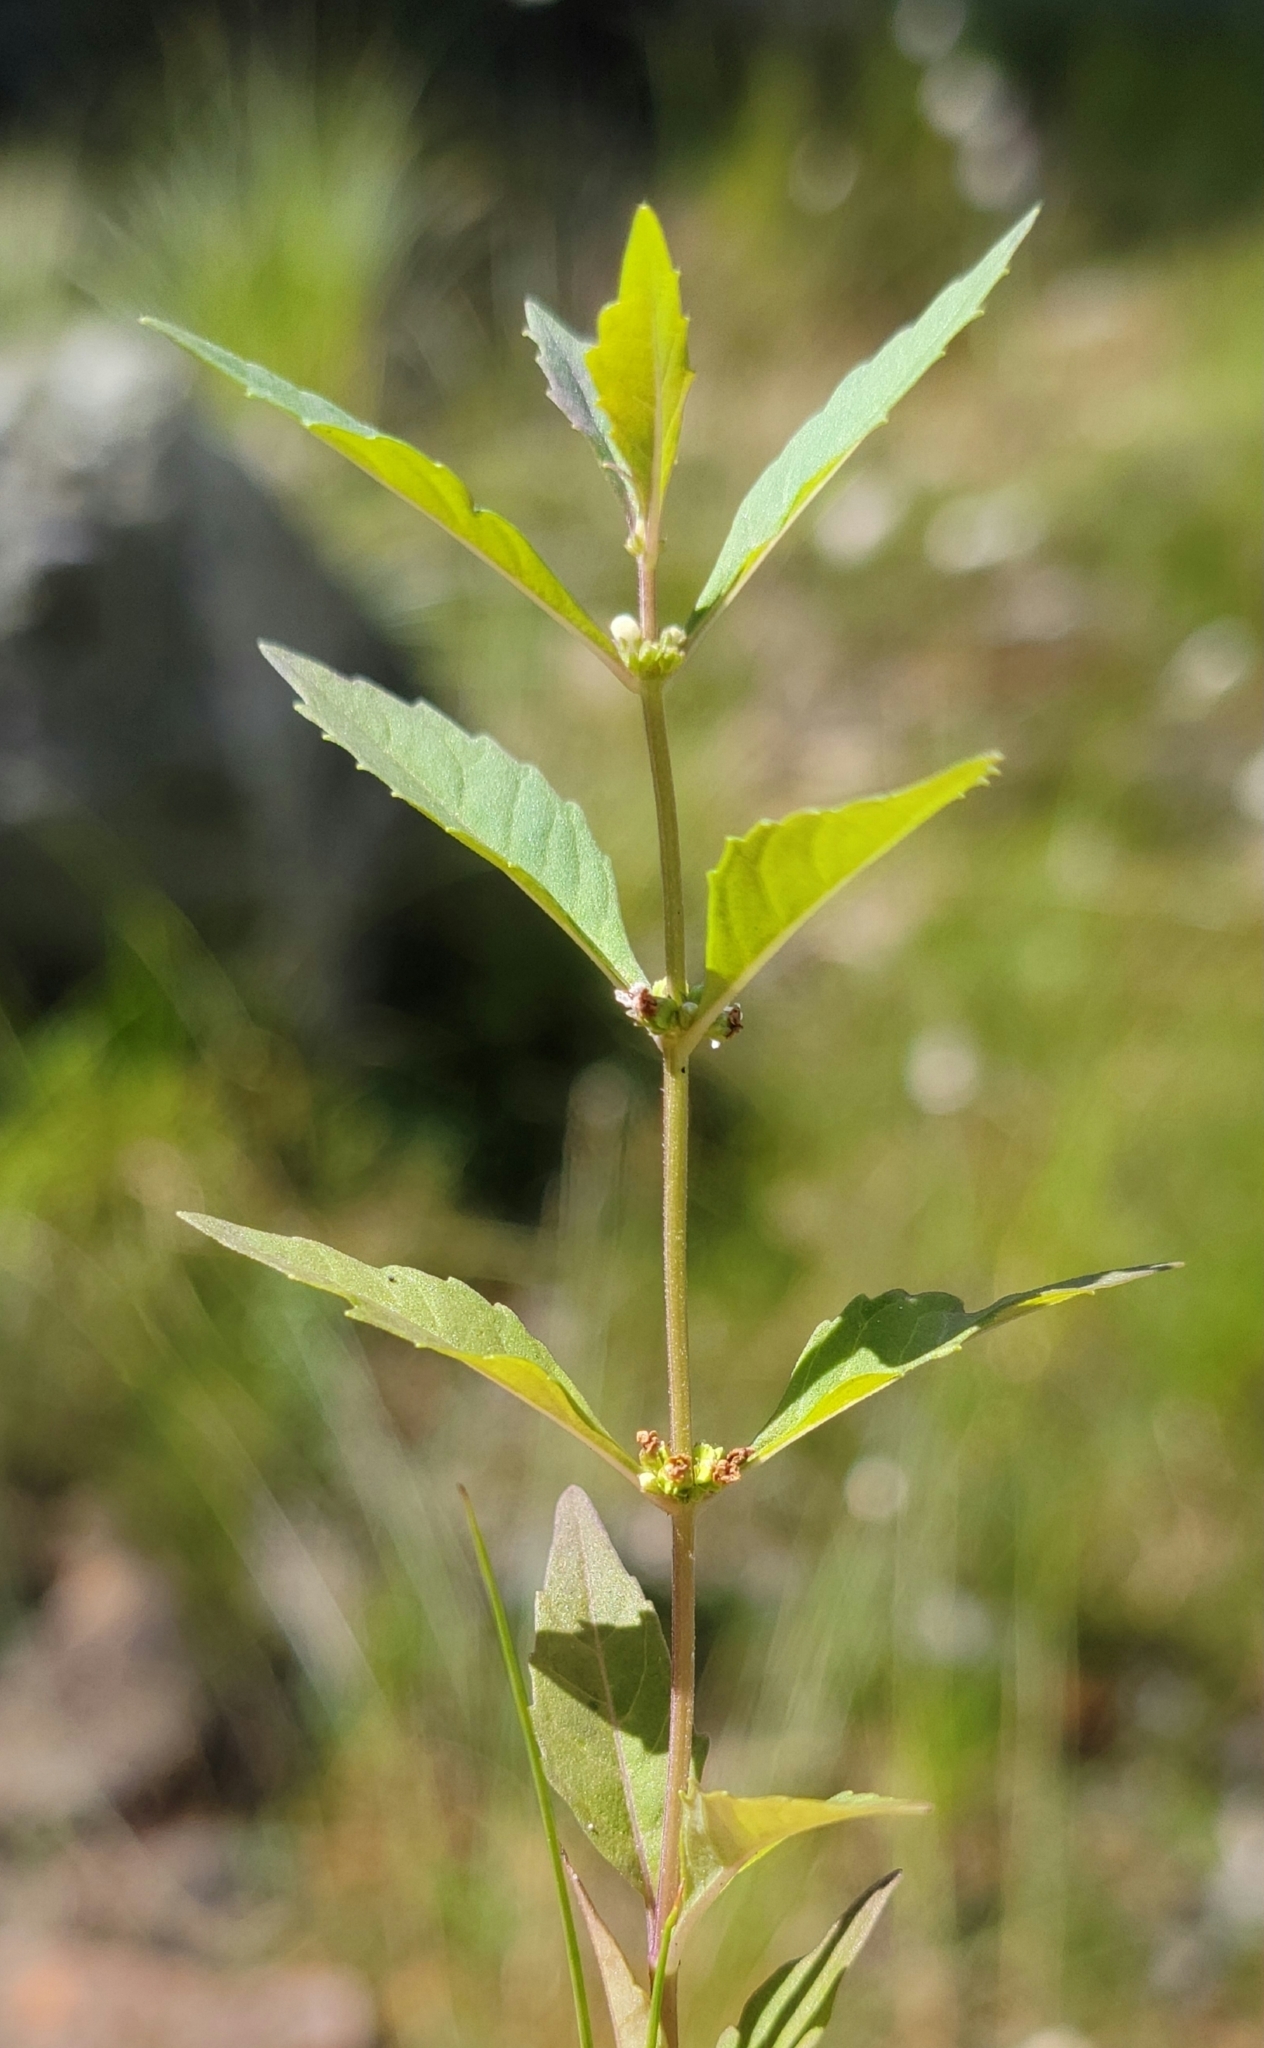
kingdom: Plantae
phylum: Tracheophyta
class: Magnoliopsida
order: Lamiales
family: Lamiaceae
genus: Lycopus
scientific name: Lycopus uniflorus
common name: Northern bugleweed
